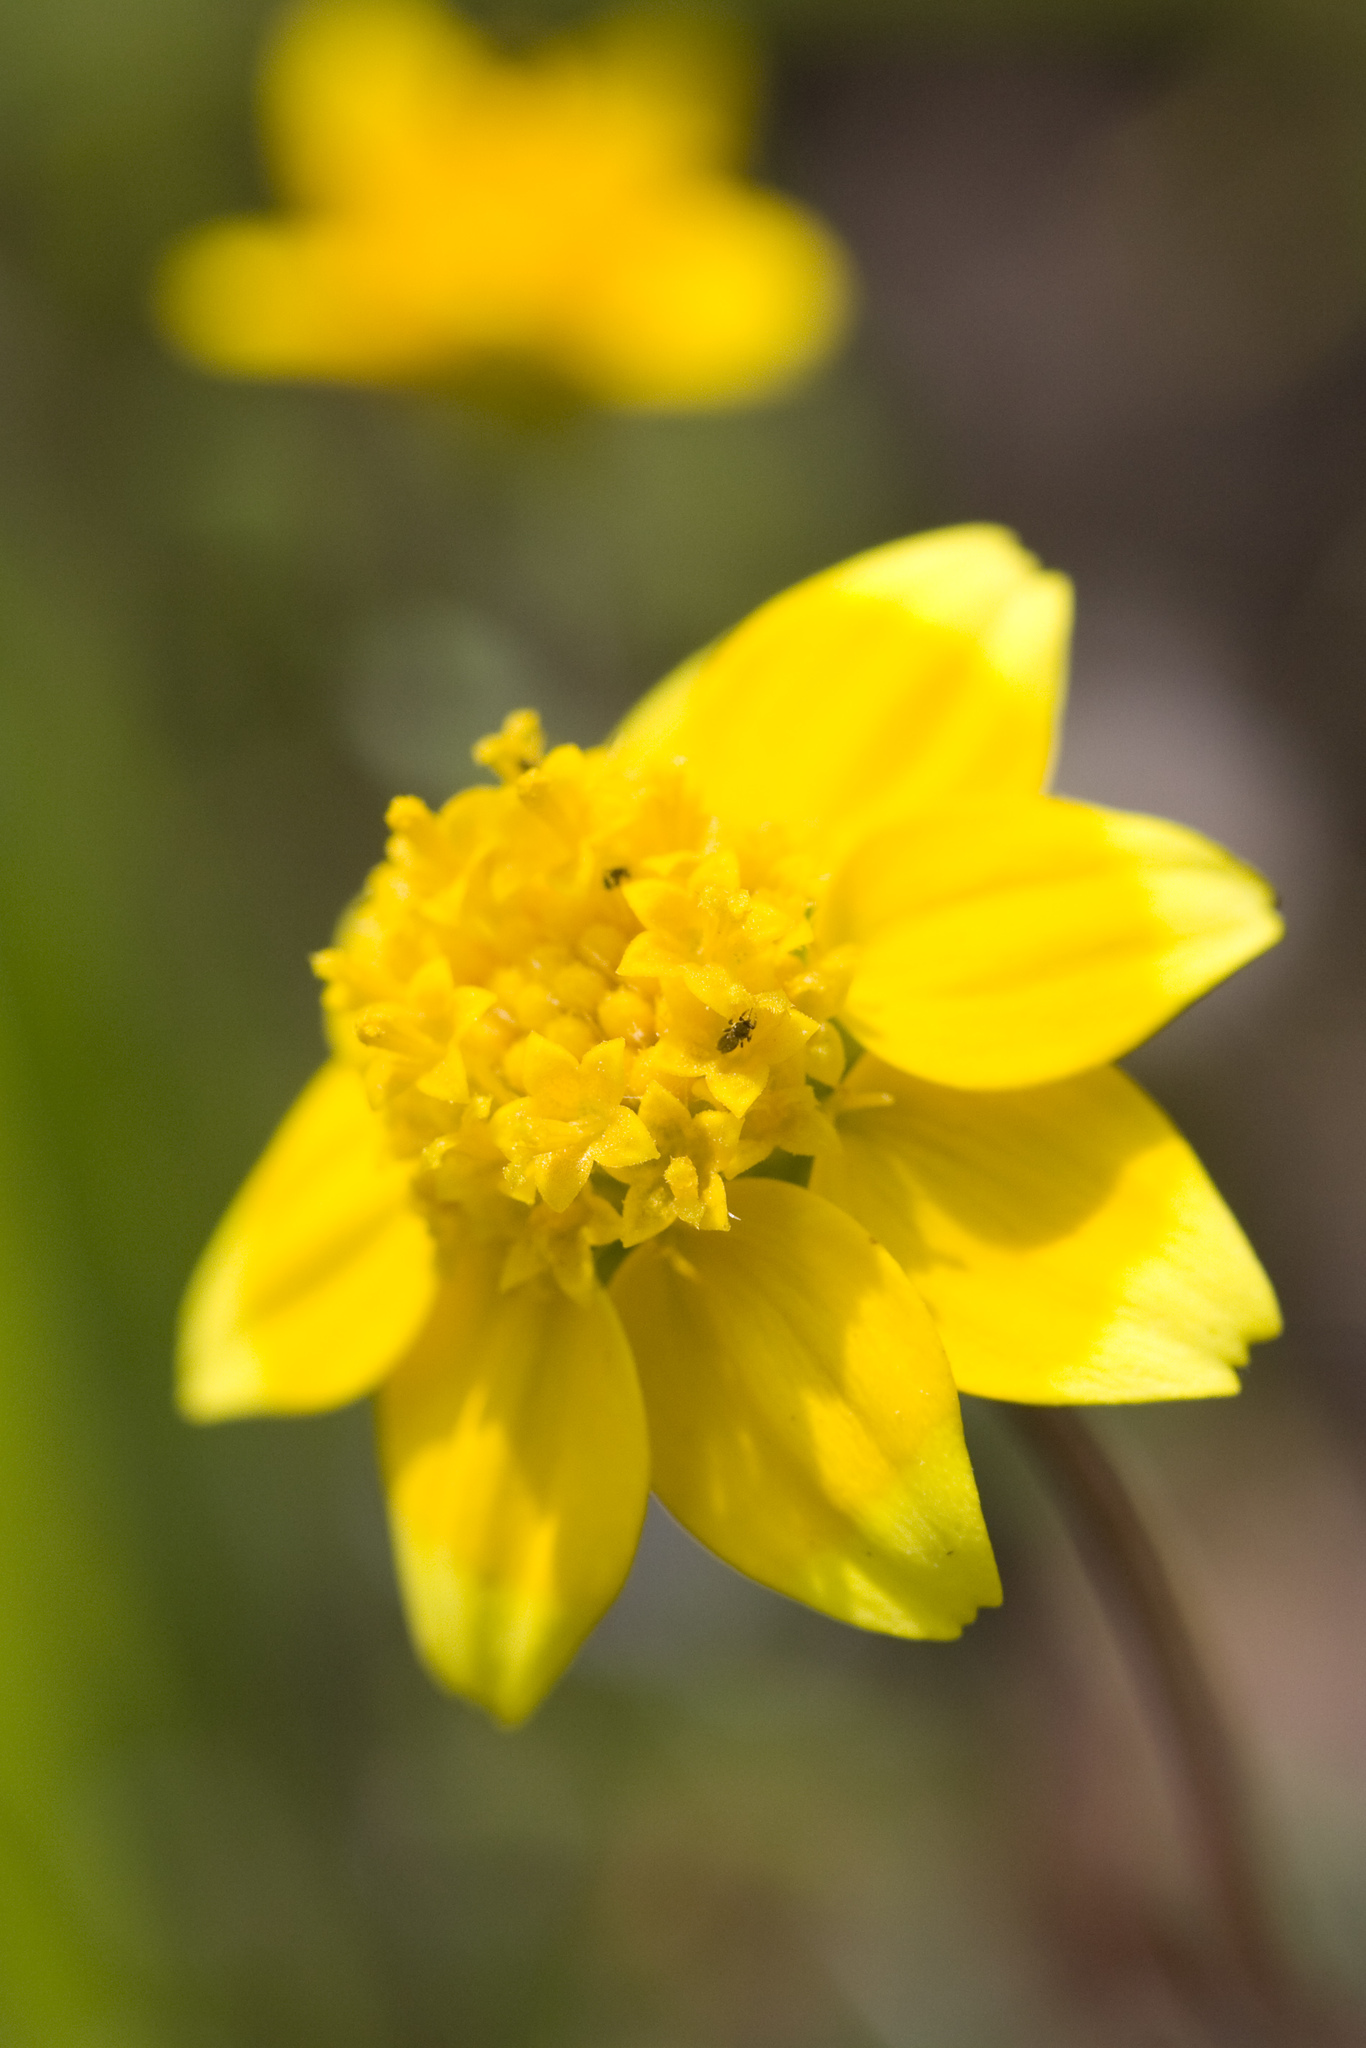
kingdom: Plantae
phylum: Tracheophyta
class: Magnoliopsida
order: Asterales
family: Asteraceae
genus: Lasthenia
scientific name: Lasthenia californica
